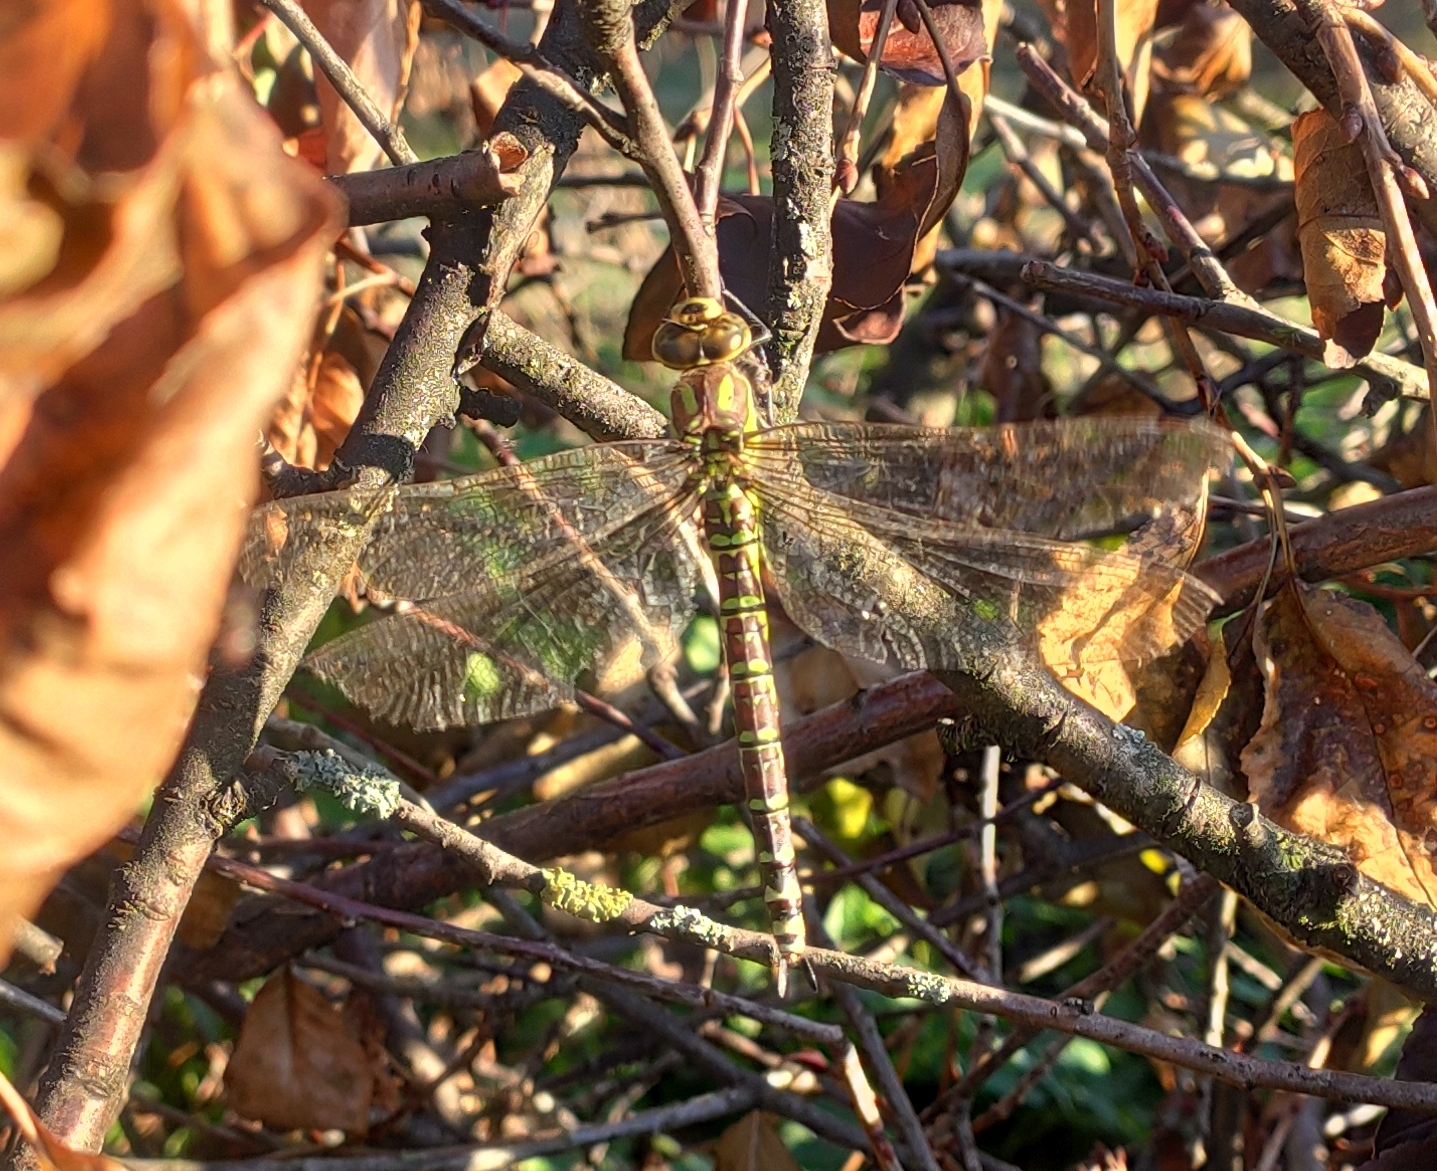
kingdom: Animalia
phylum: Arthropoda
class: Insecta
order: Odonata
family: Aeshnidae
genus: Aeshna
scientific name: Aeshna cyanea
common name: Southern hawker
